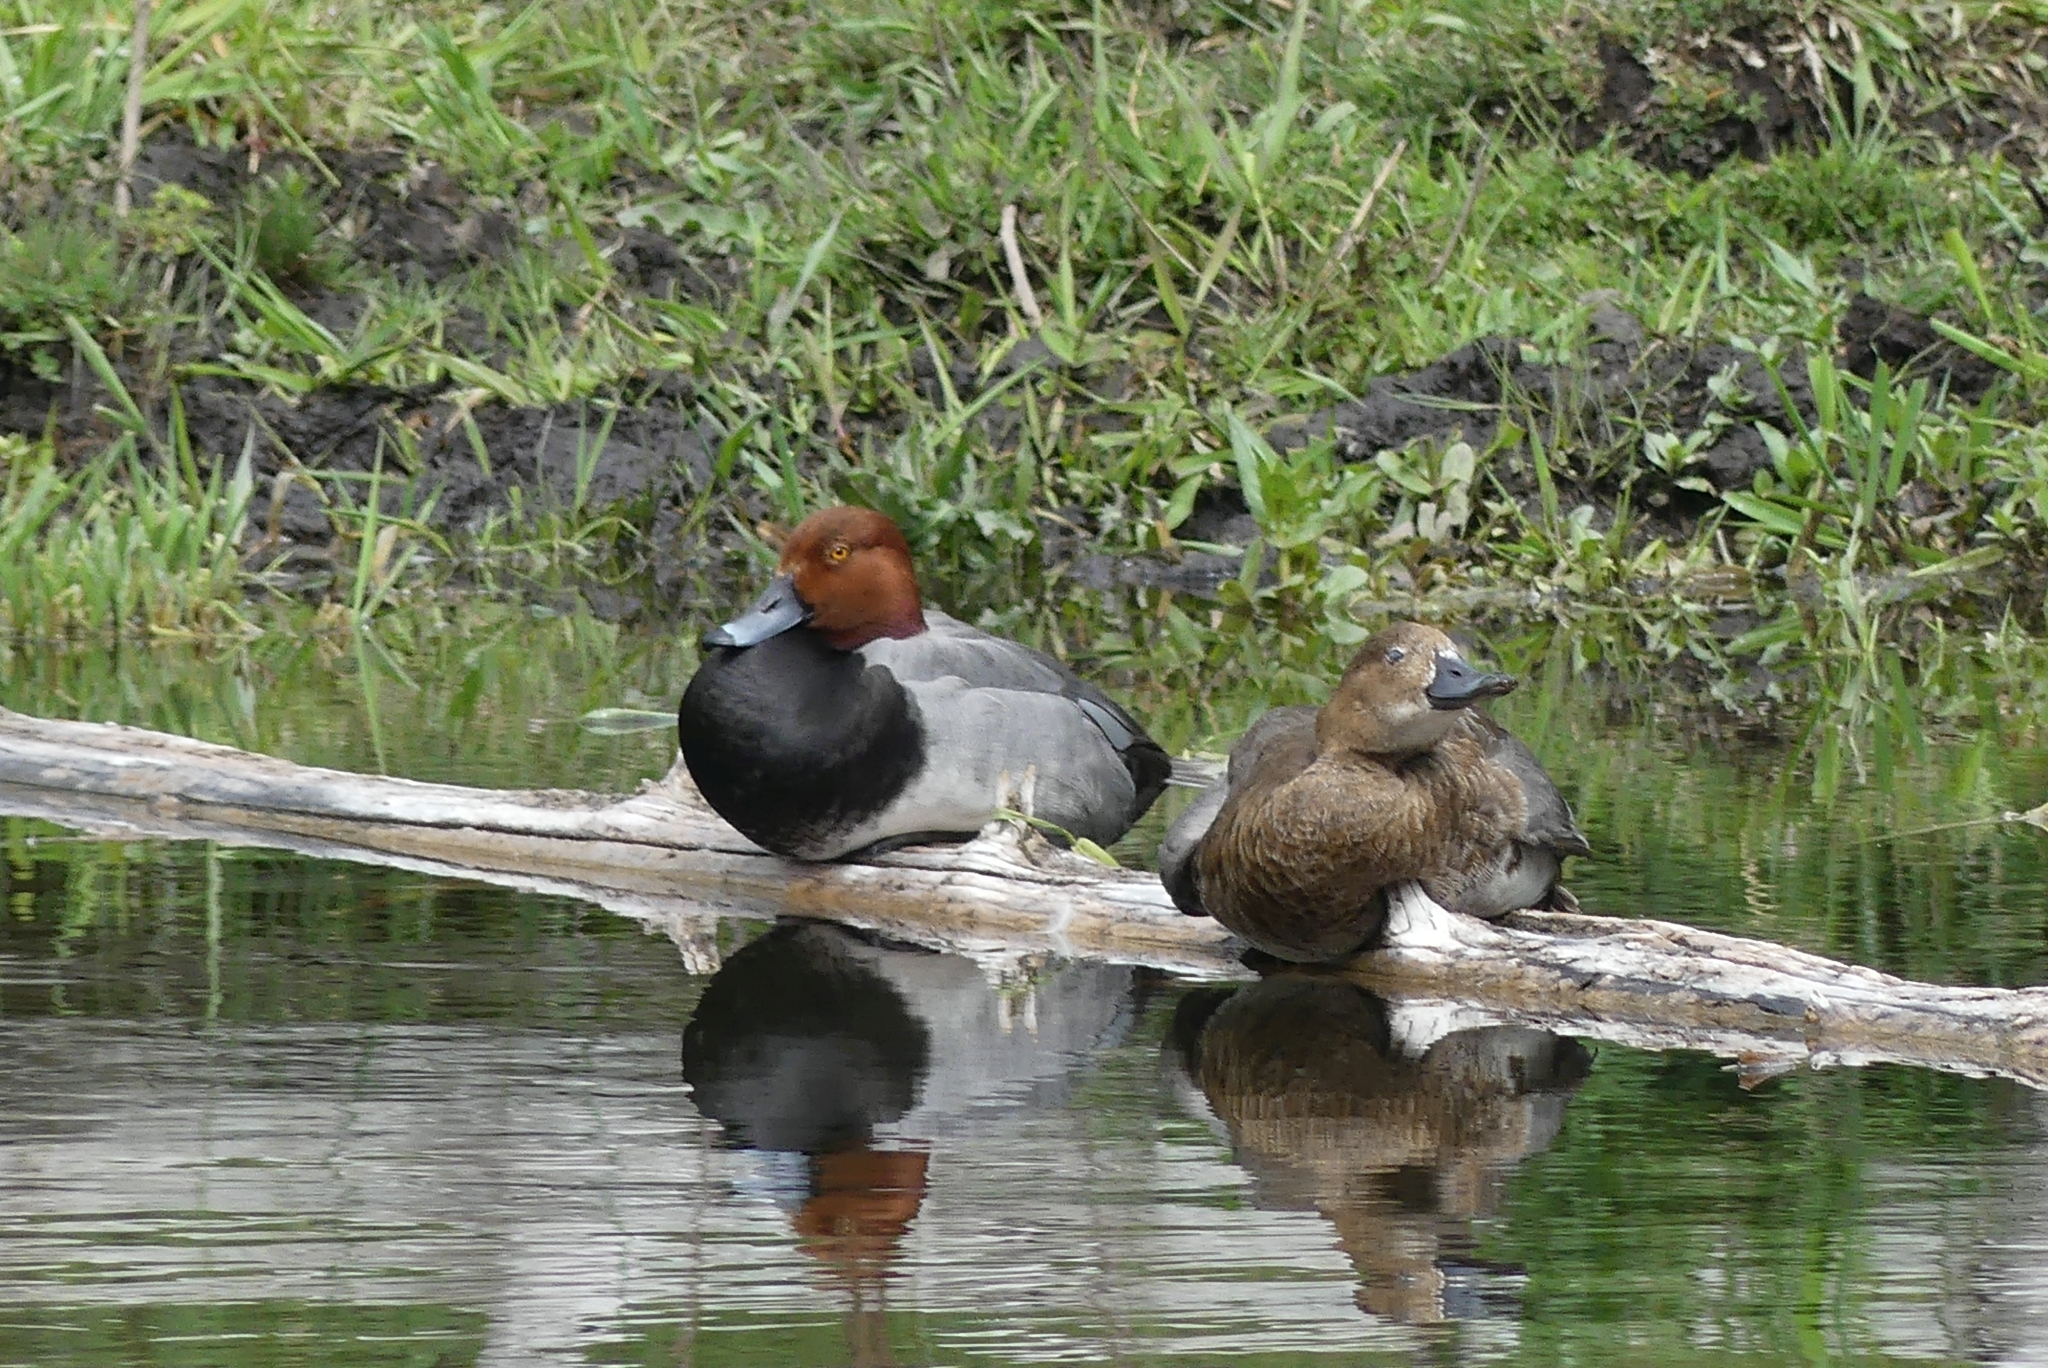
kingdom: Animalia
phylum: Chordata
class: Aves
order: Anseriformes
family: Anatidae
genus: Aythya
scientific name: Aythya americana
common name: Redhead
